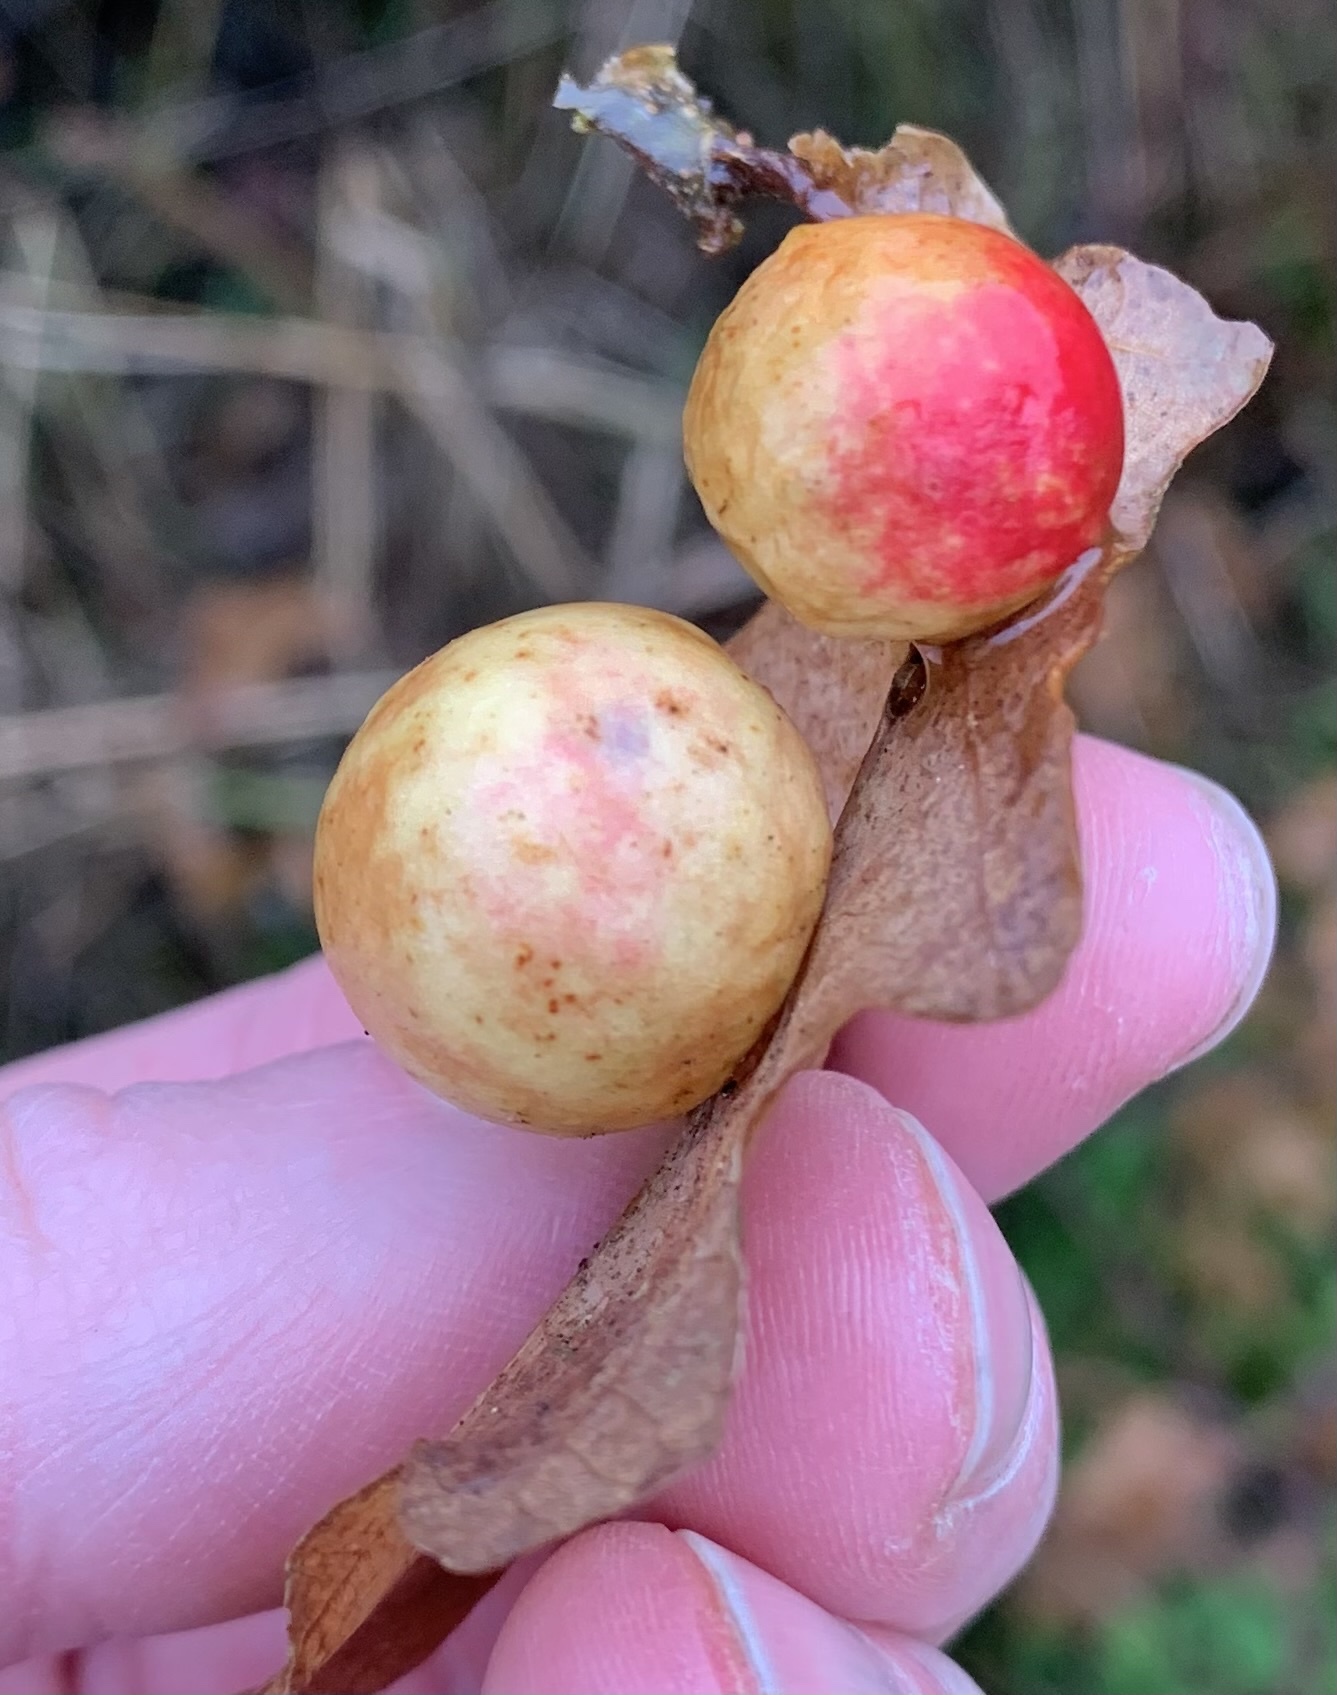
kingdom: Animalia
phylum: Arthropoda
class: Insecta
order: Hymenoptera
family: Cynipidae
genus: Cynips
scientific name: Cynips quercusfolii
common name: Cherry gall
